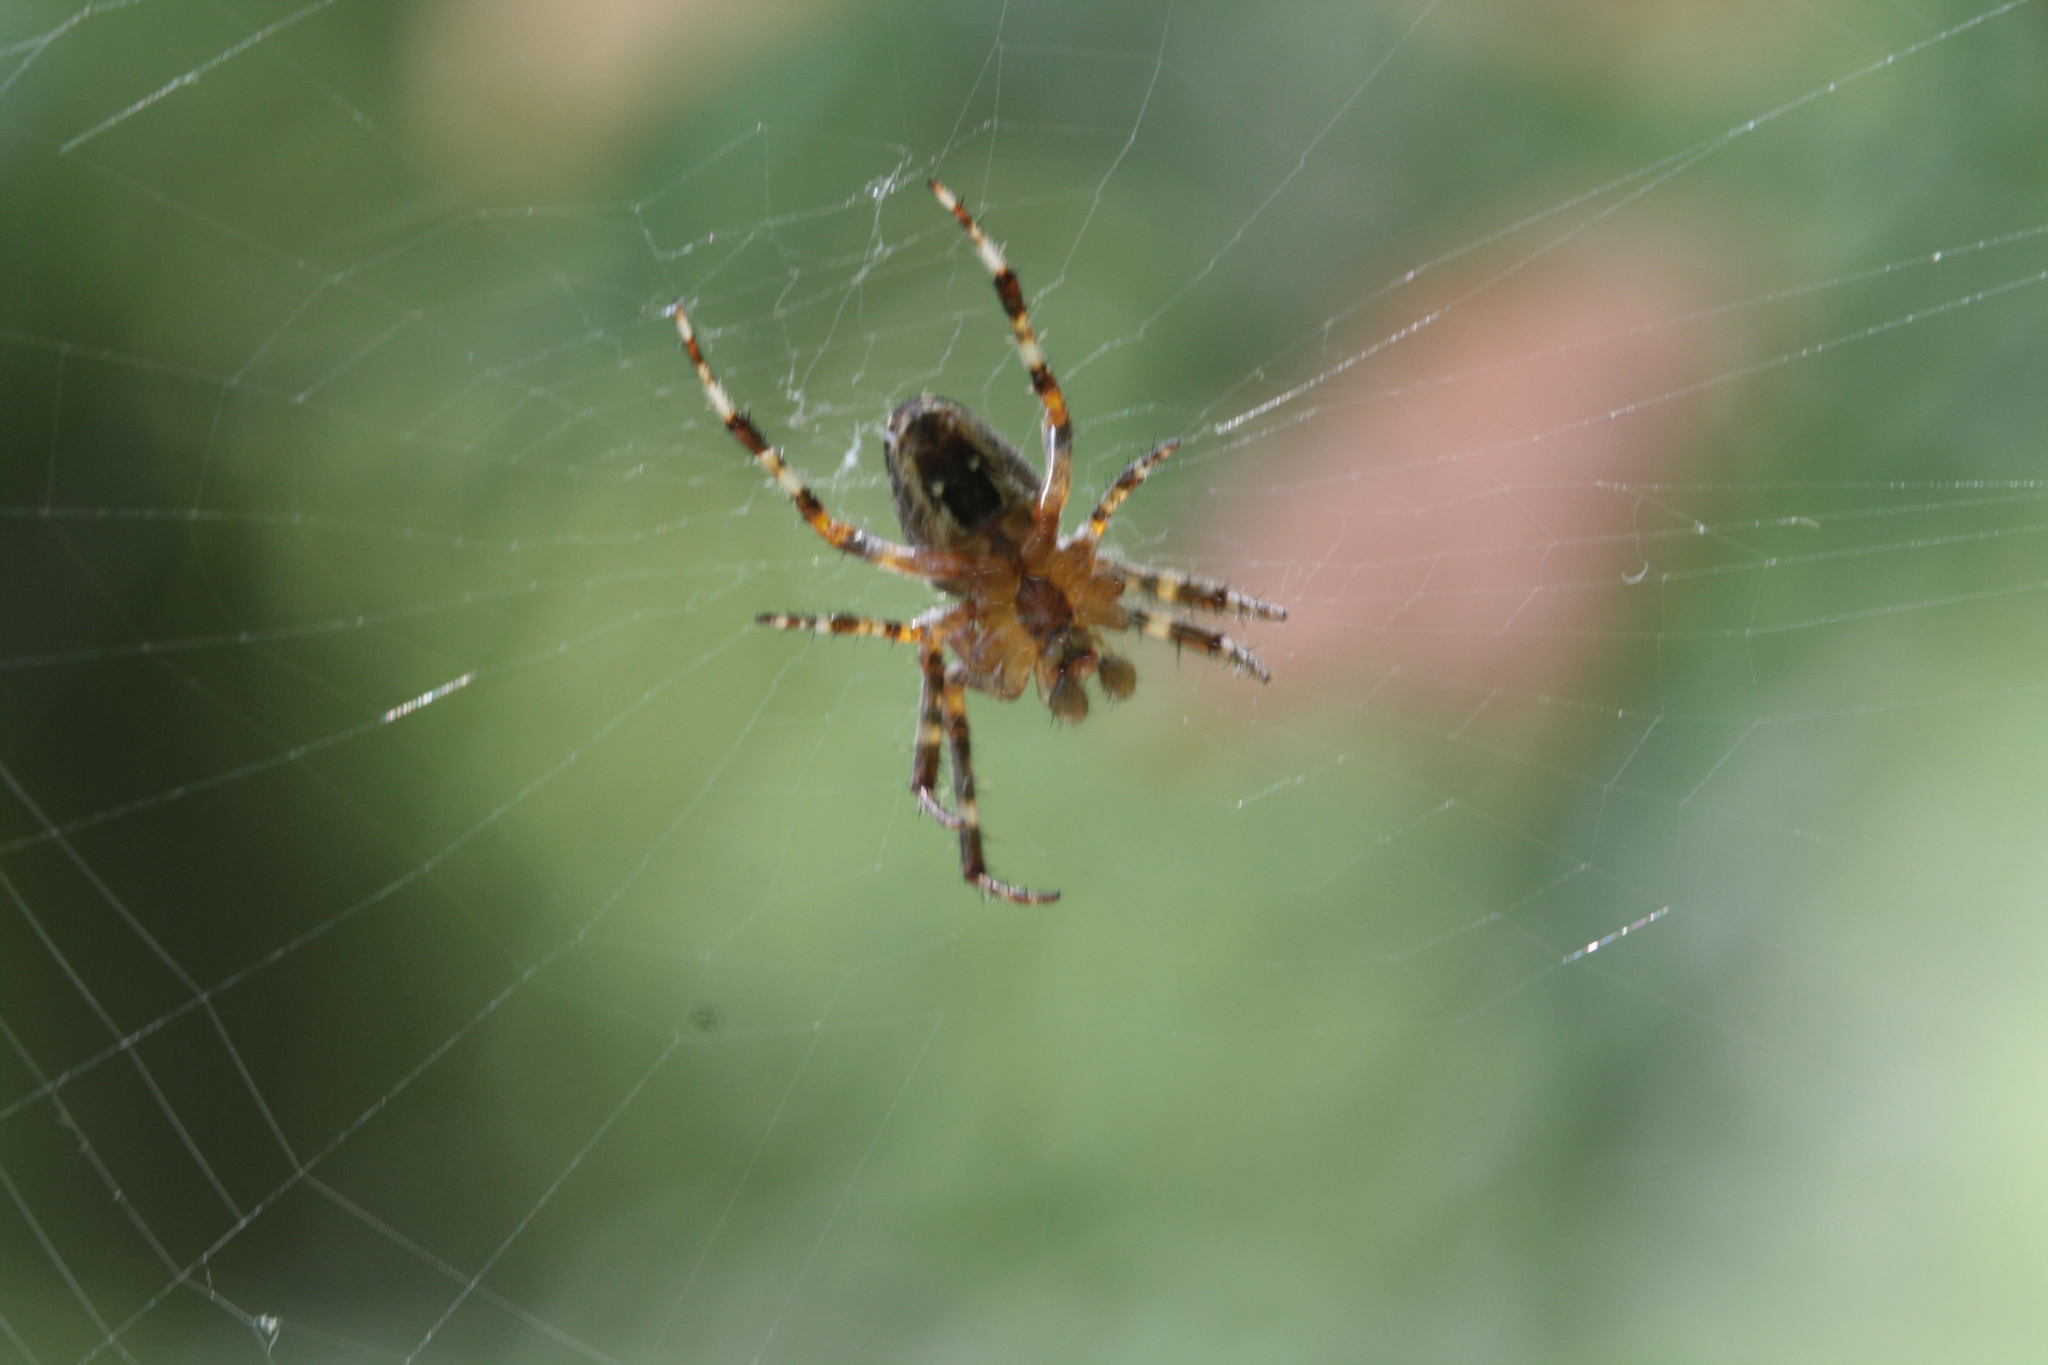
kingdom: Animalia
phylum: Arthropoda
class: Arachnida
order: Araneae
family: Araneidae
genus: Araneus
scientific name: Araneus diadematus
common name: Cross orbweaver
